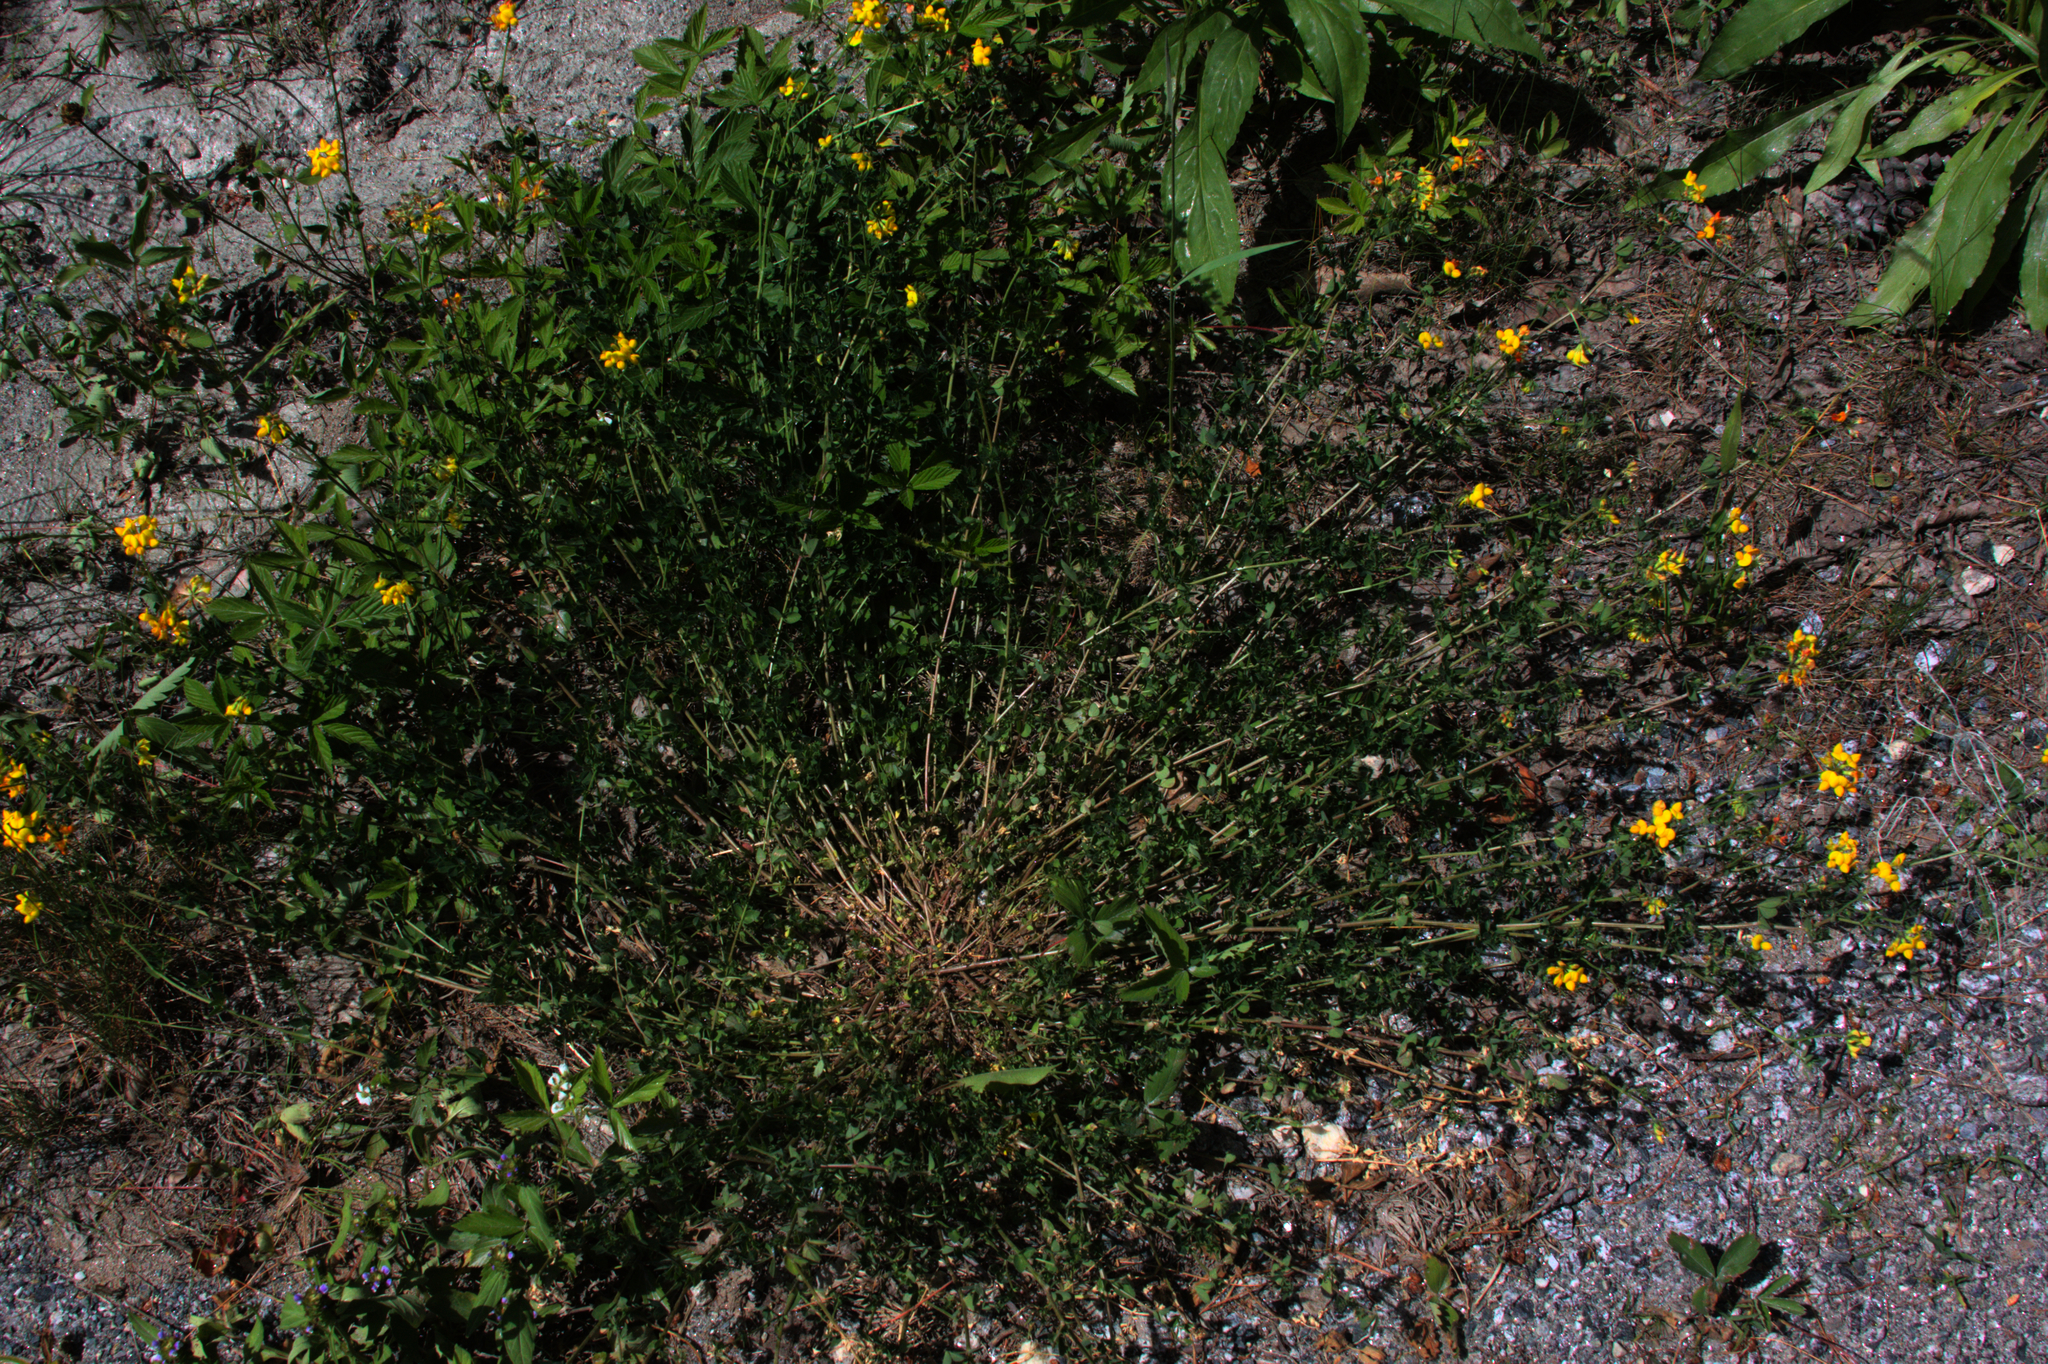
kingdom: Plantae
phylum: Tracheophyta
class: Magnoliopsida
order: Fabales
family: Fabaceae
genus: Lotus
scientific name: Lotus corniculatus
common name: Common bird's-foot-trefoil
